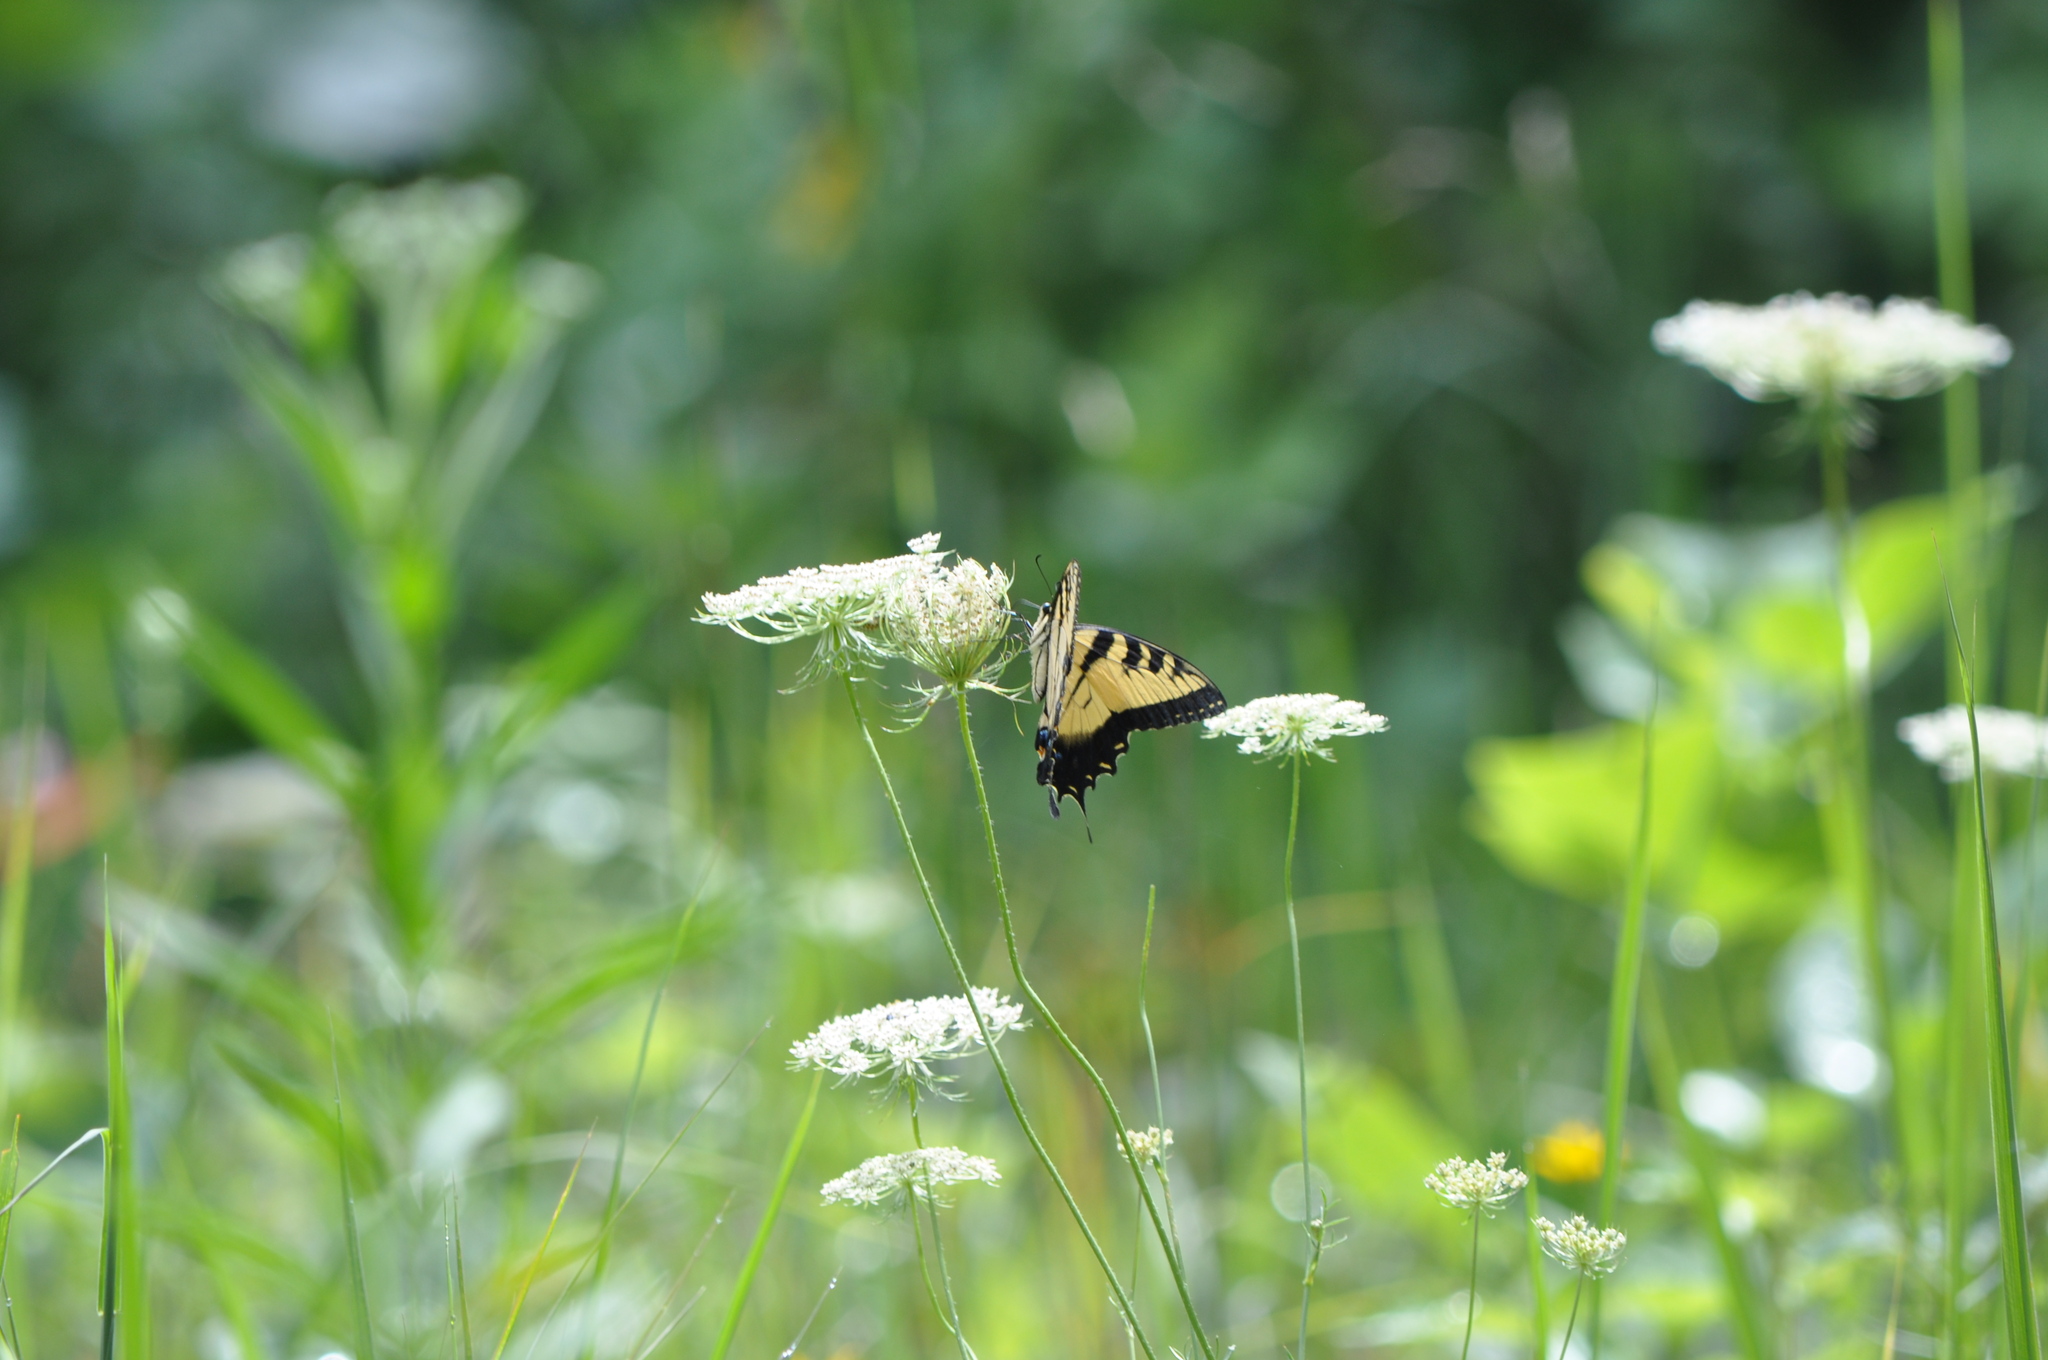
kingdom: Animalia
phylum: Arthropoda
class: Insecta
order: Lepidoptera
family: Papilionidae
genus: Papilio
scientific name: Papilio glaucus
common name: Tiger swallowtail
